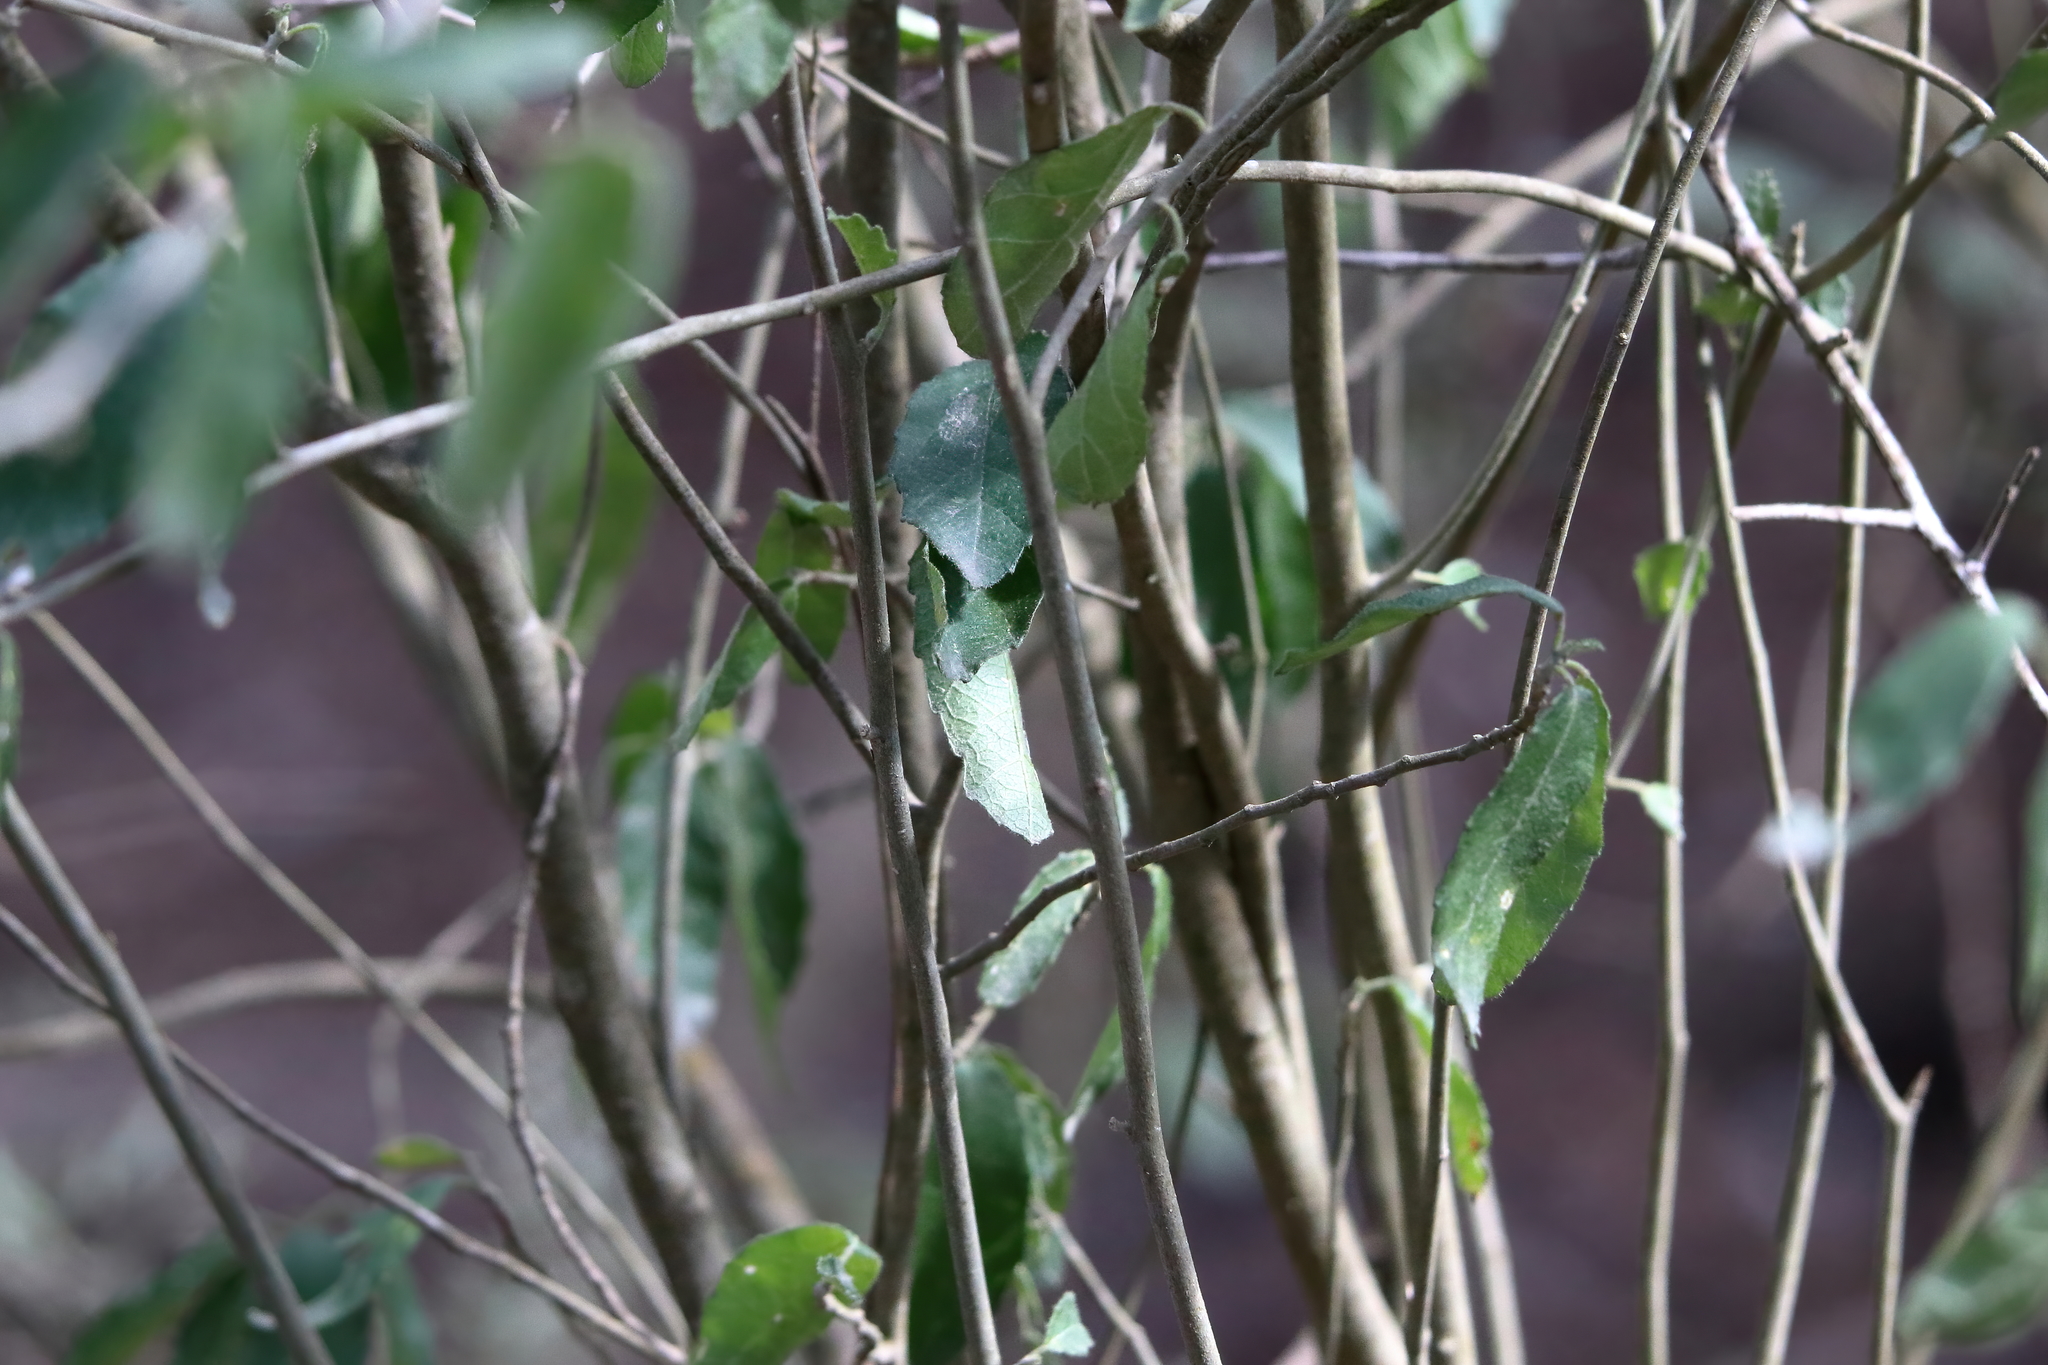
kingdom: Plantae
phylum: Tracheophyta
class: Magnoliopsida
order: Malpighiales
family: Euphorbiaceae
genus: Bernardia
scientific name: Bernardia myricifolia
